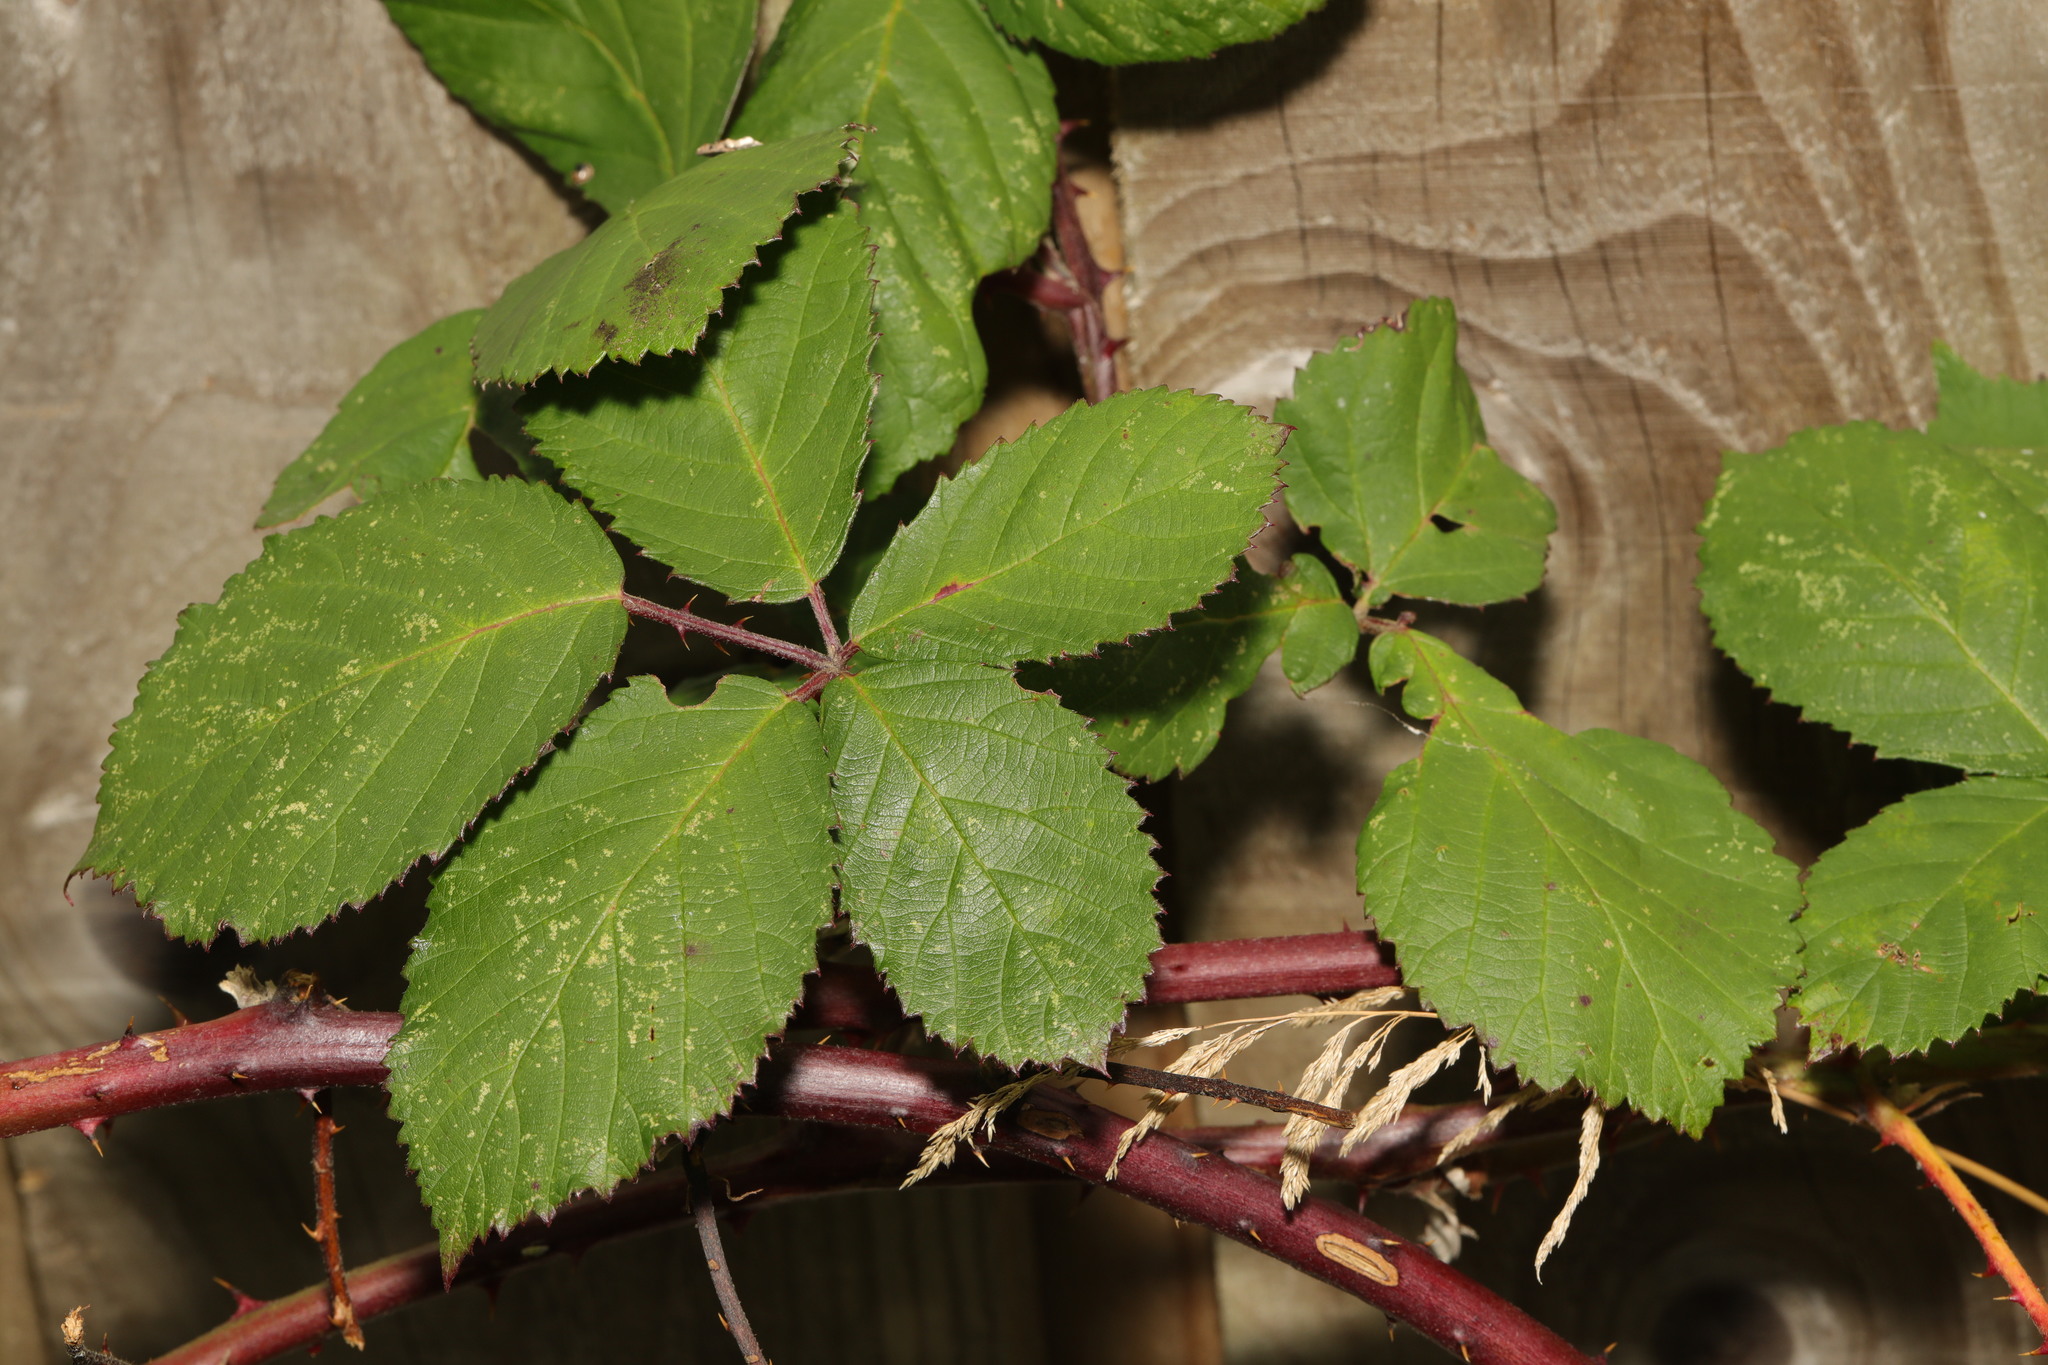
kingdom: Plantae
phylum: Tracheophyta
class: Magnoliopsida
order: Rosales
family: Rosaceae
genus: Rubus
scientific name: Rubus armeniacus
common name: Himalayan blackberry
